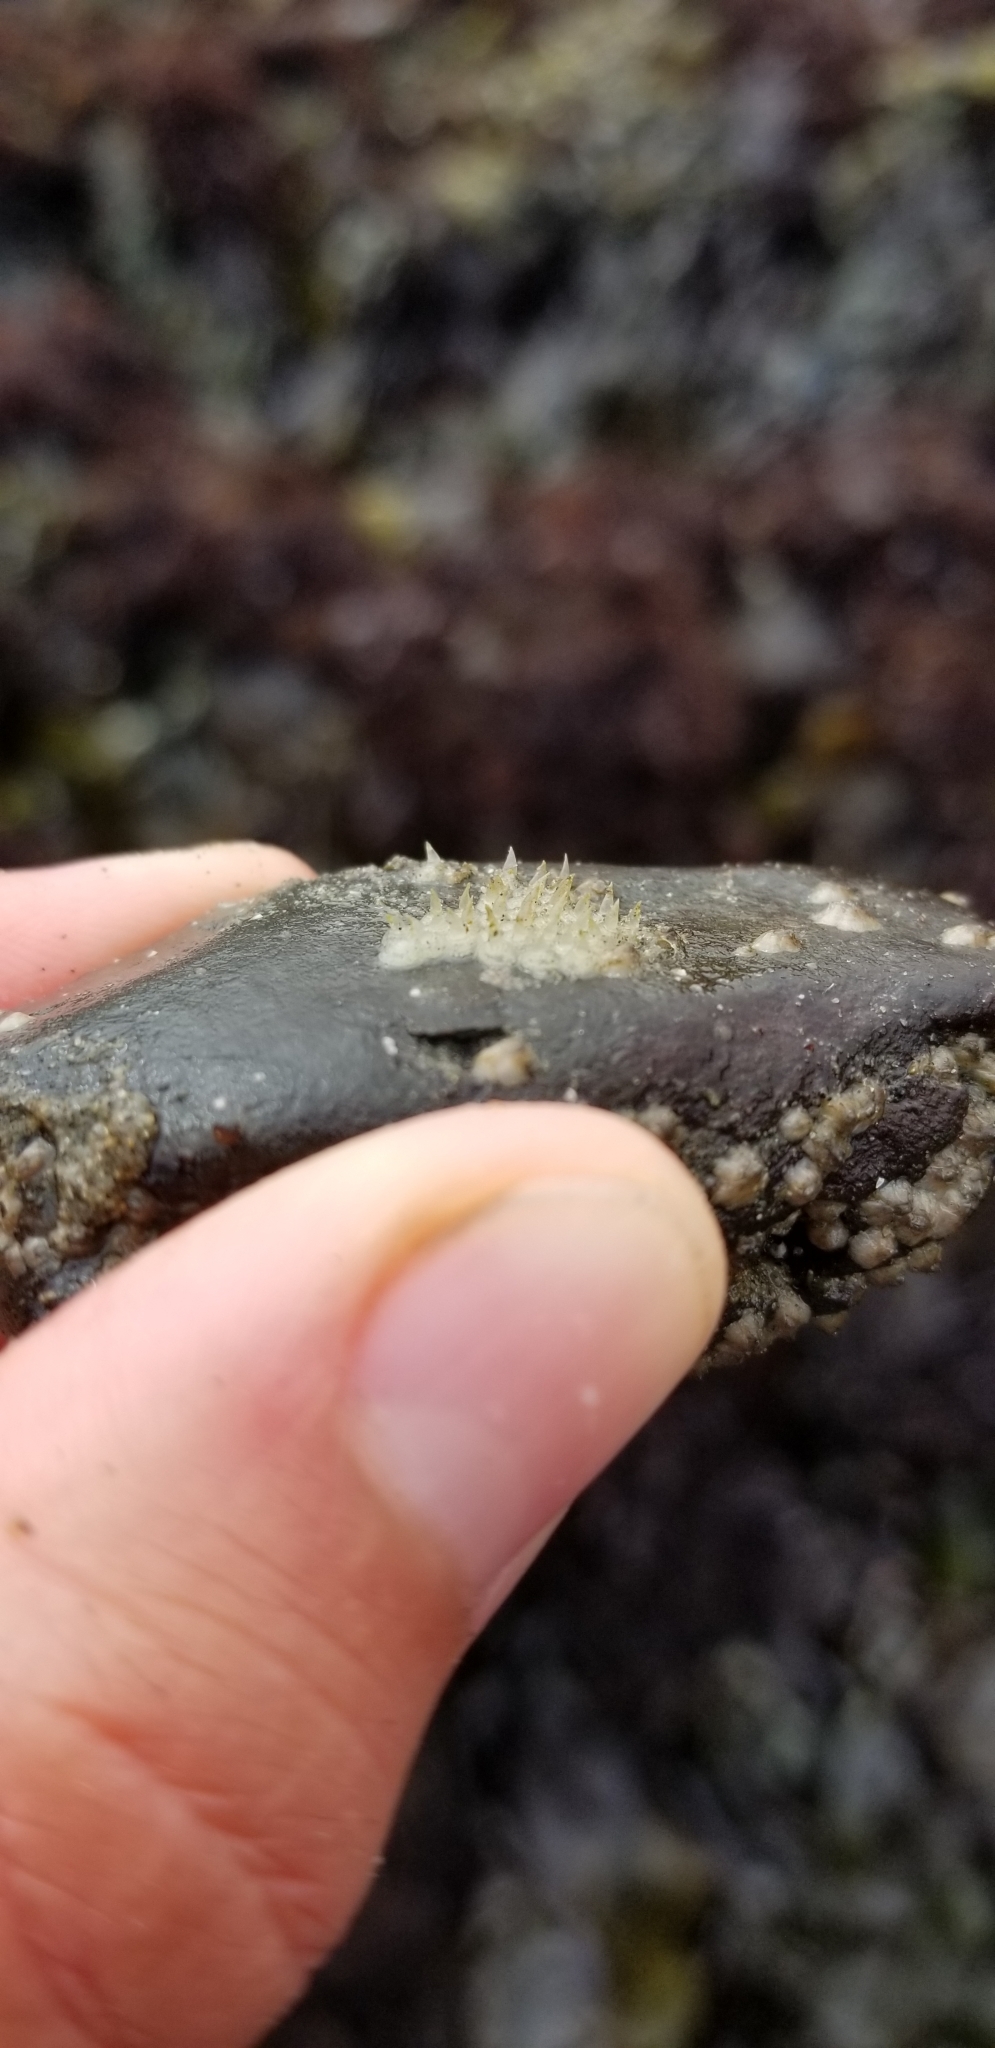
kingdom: Animalia
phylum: Mollusca
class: Gastropoda
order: Neogastropoda
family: Columbellidae
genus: Amphissa
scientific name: Amphissa versicolor
